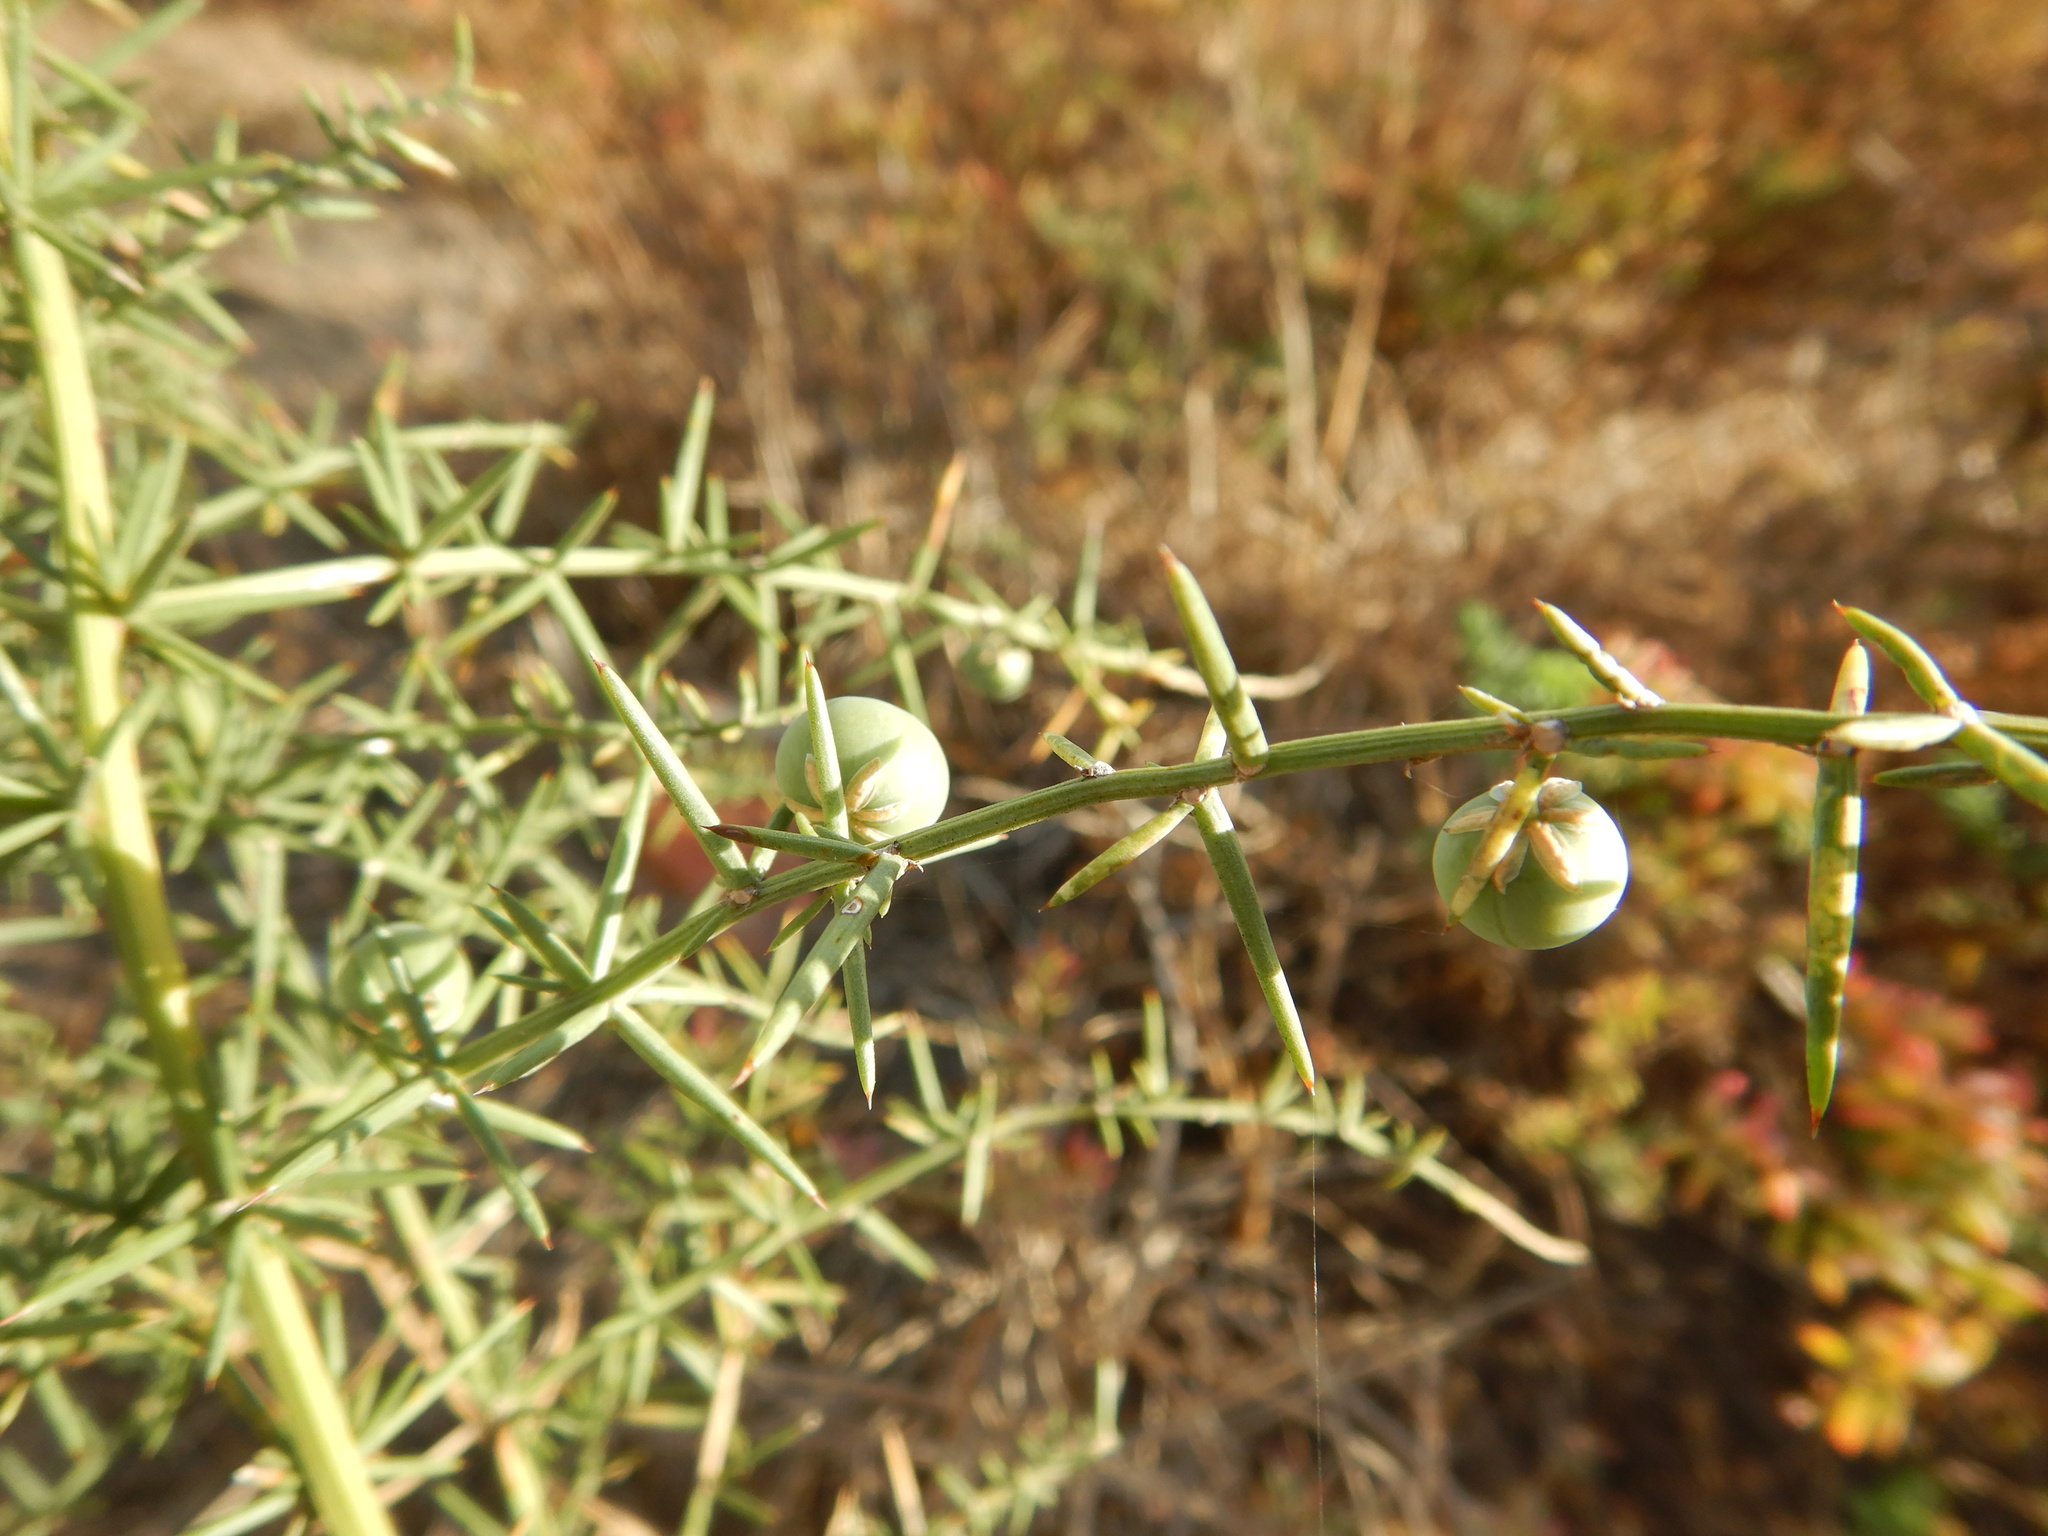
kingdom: Plantae
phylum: Tracheophyta
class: Liliopsida
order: Asparagales
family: Asparagaceae
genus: Asparagus
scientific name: Asparagus aphyllus
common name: Mediterranean asparagus
